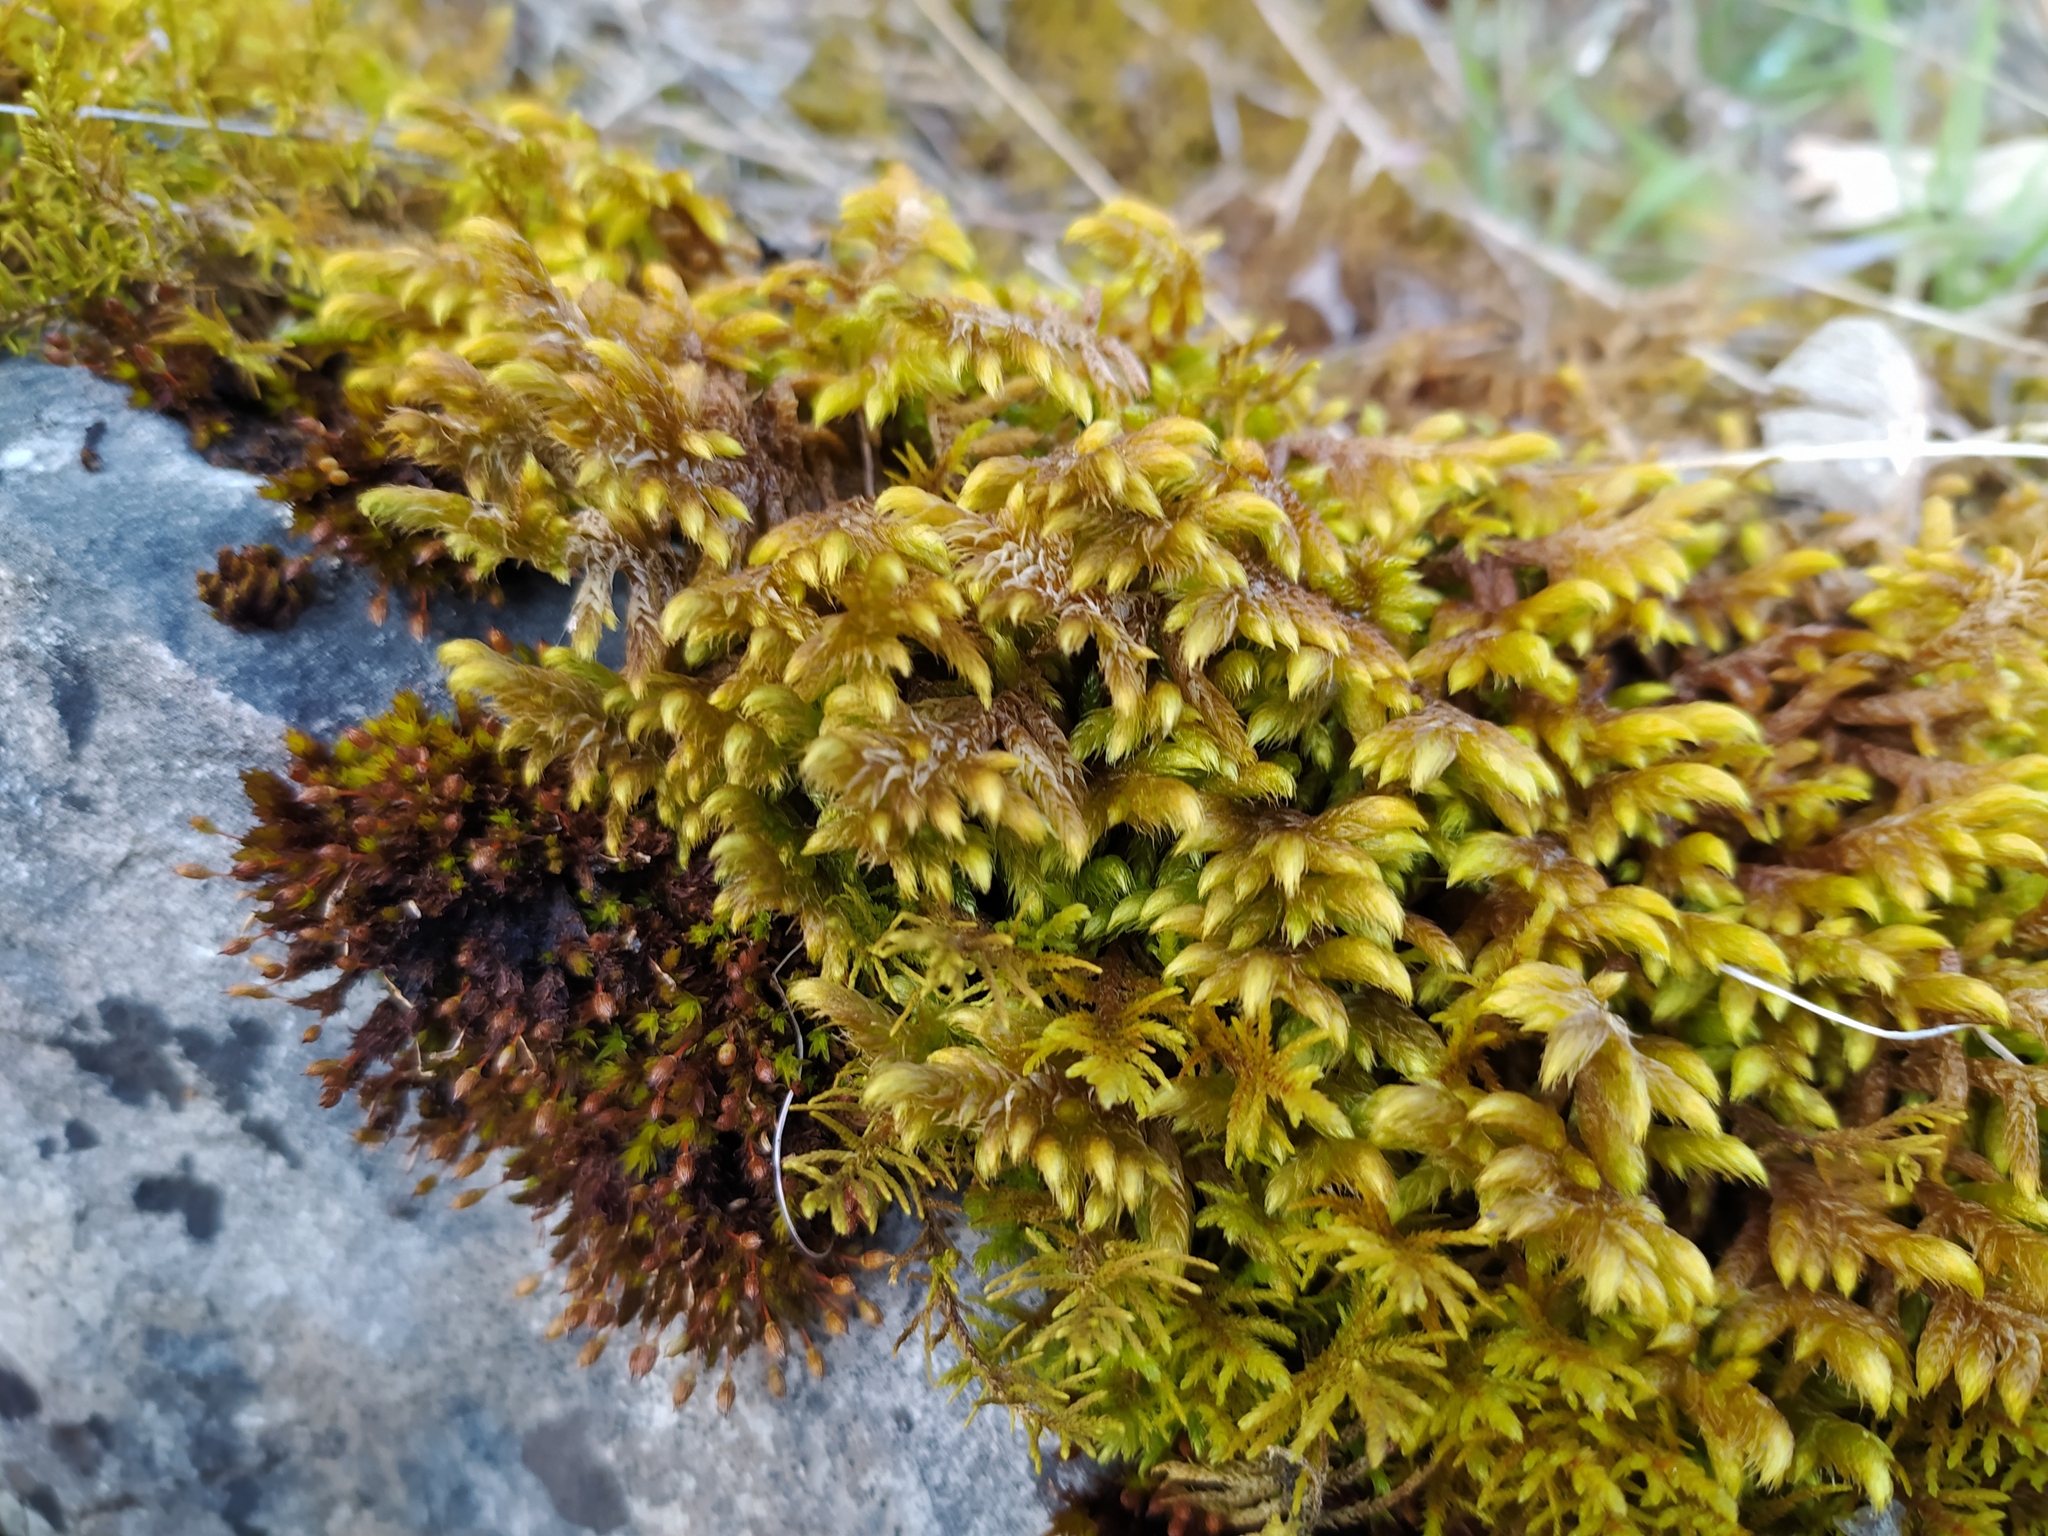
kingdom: Plantae
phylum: Bryophyta
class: Bryopsida
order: Hypnales
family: Rhytidiaceae
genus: Rhytidium
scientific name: Rhytidium rugosum
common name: Wrinkle-leaved moss
